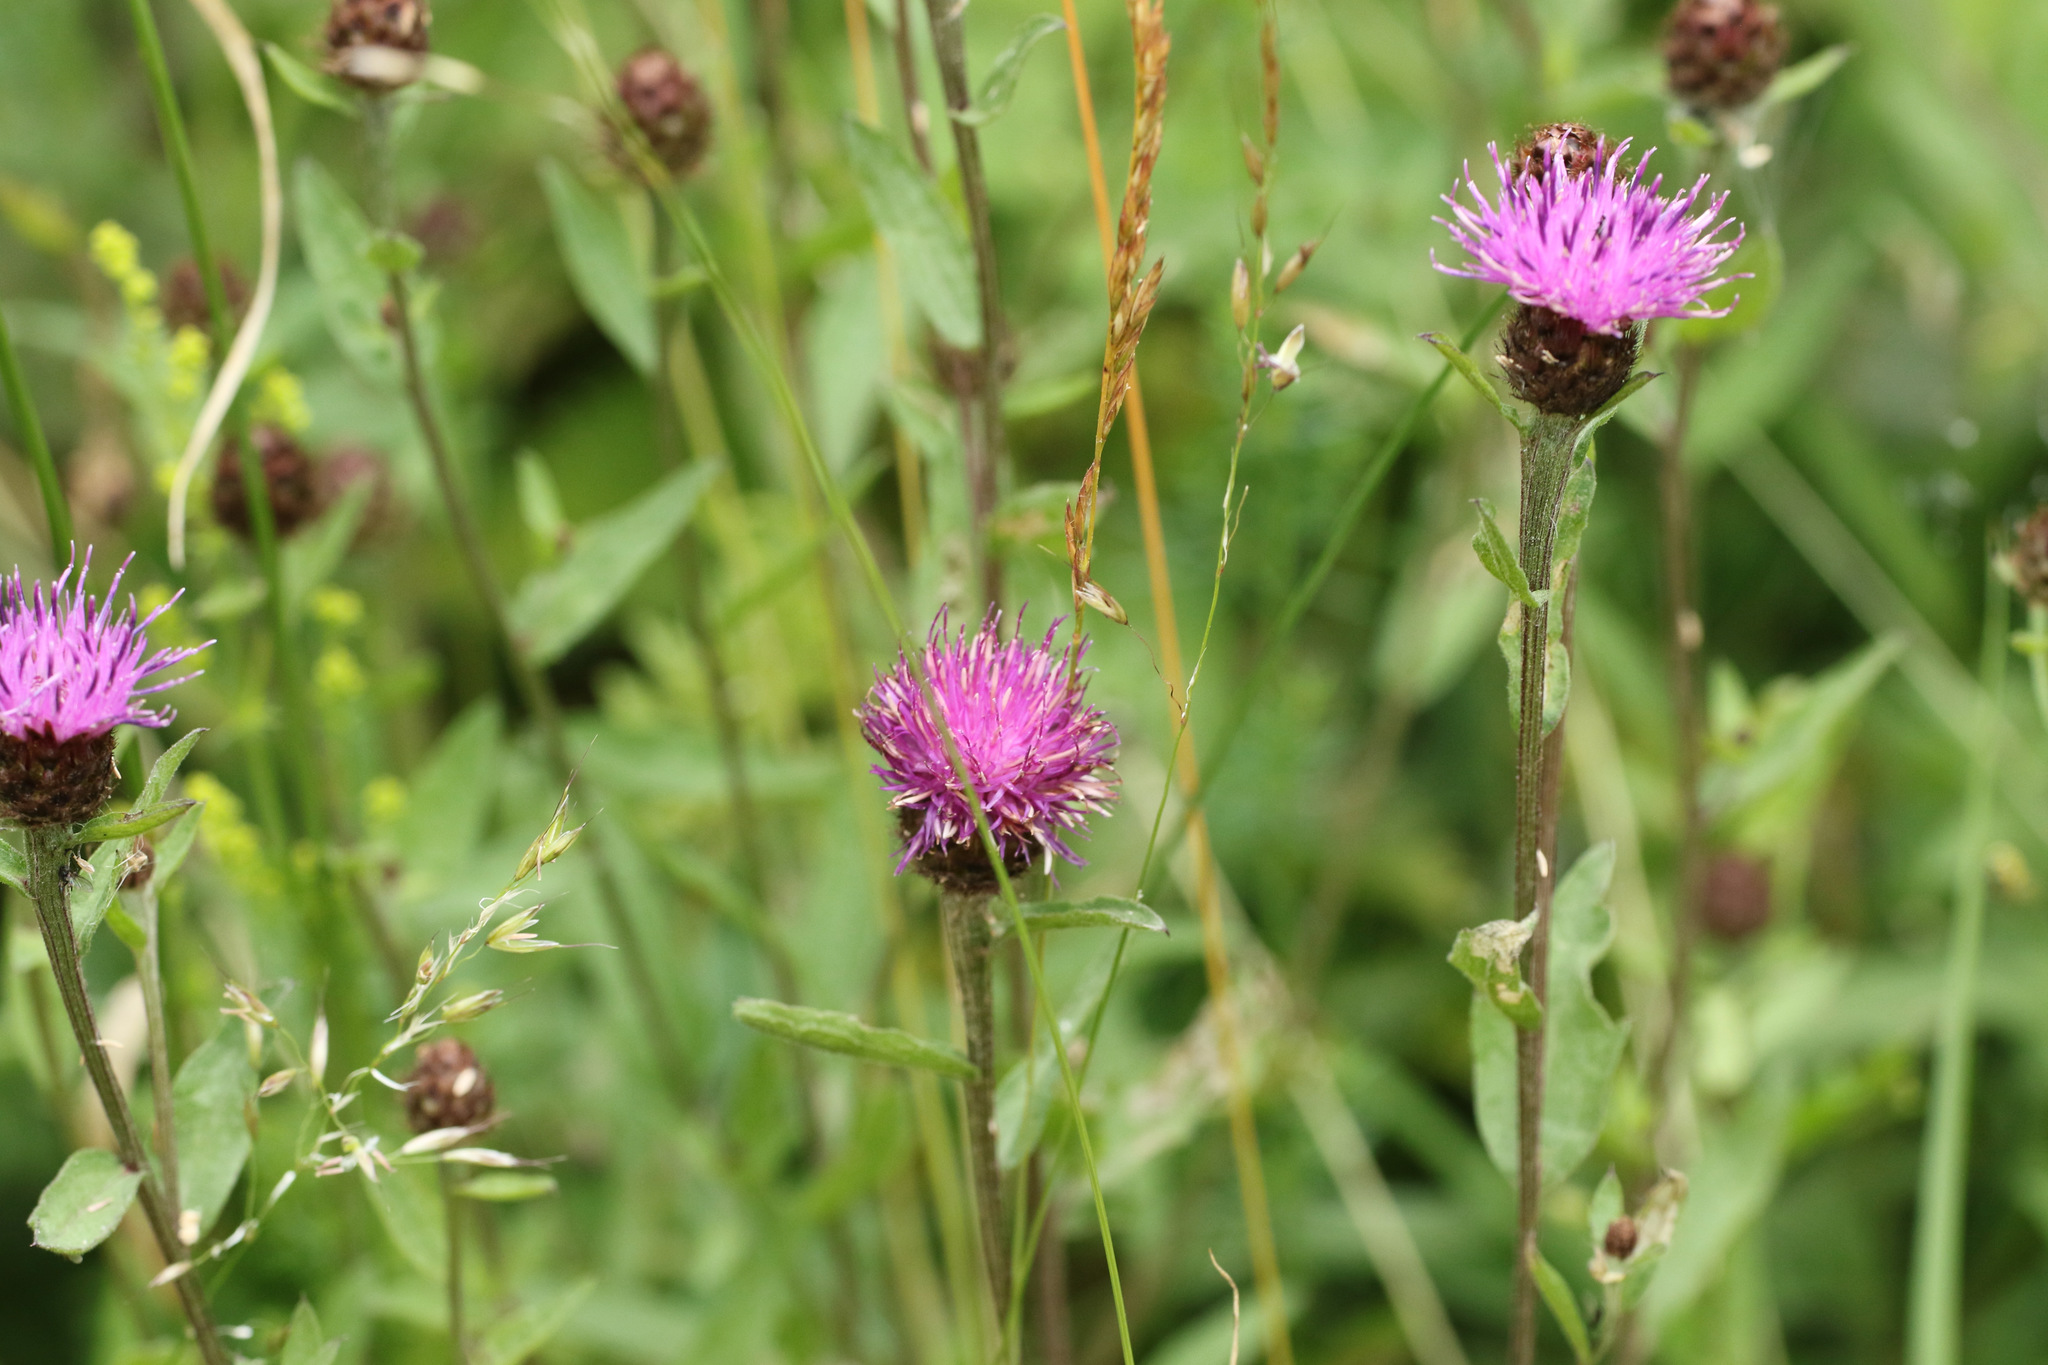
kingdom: Plantae
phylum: Tracheophyta
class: Magnoliopsida
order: Asterales
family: Asteraceae
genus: Centaurea
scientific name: Centaurea nigra
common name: Lesser knapweed
